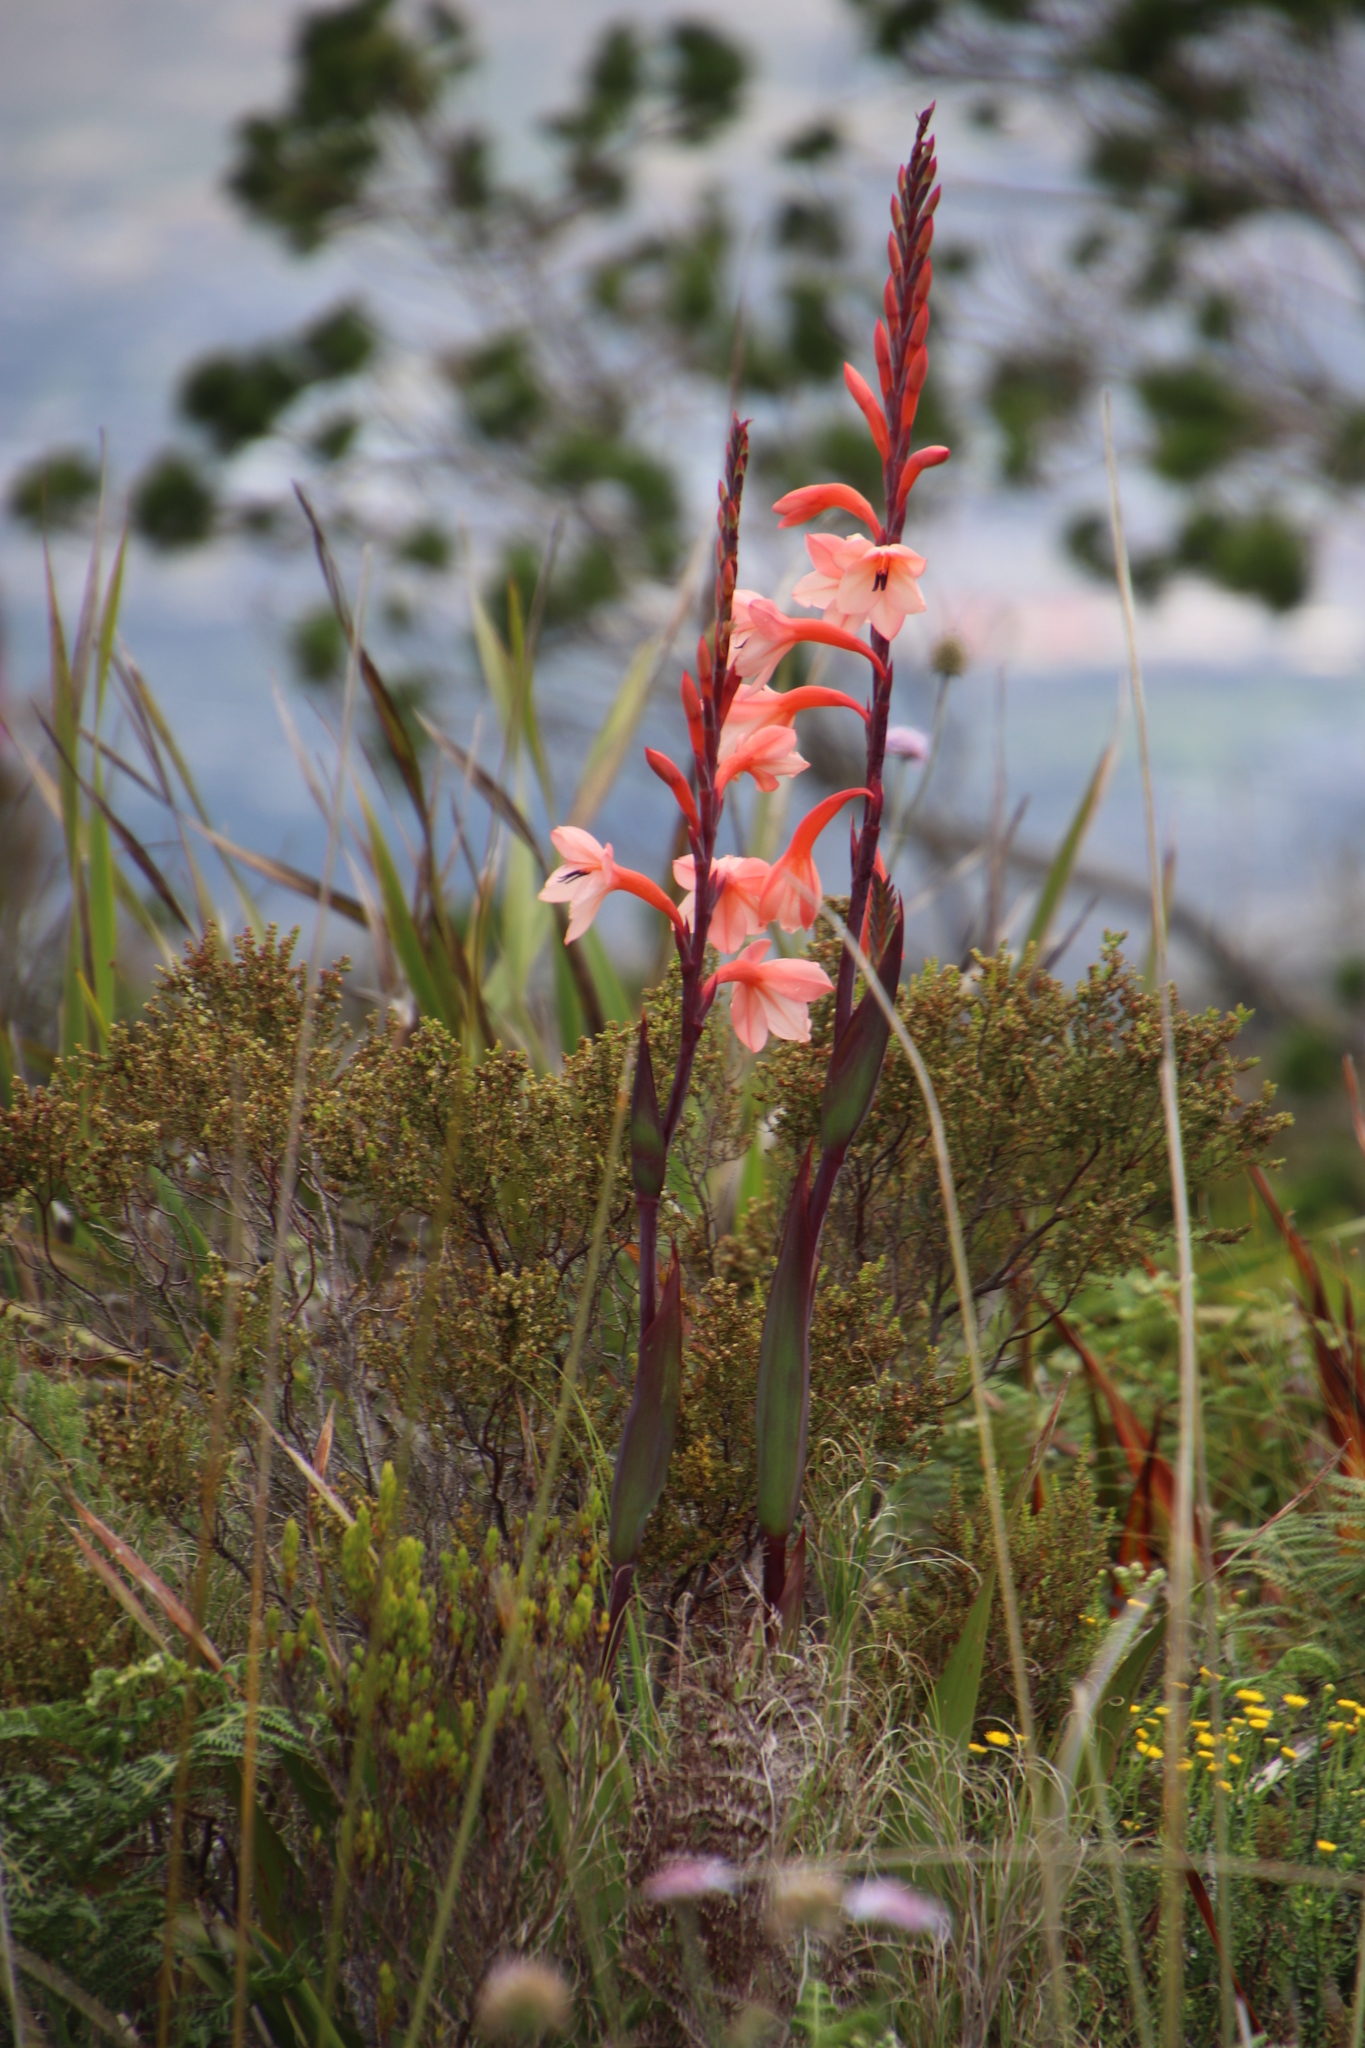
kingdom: Plantae
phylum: Tracheophyta
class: Liliopsida
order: Asparagales
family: Iridaceae
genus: Watsonia
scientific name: Watsonia tabularis
